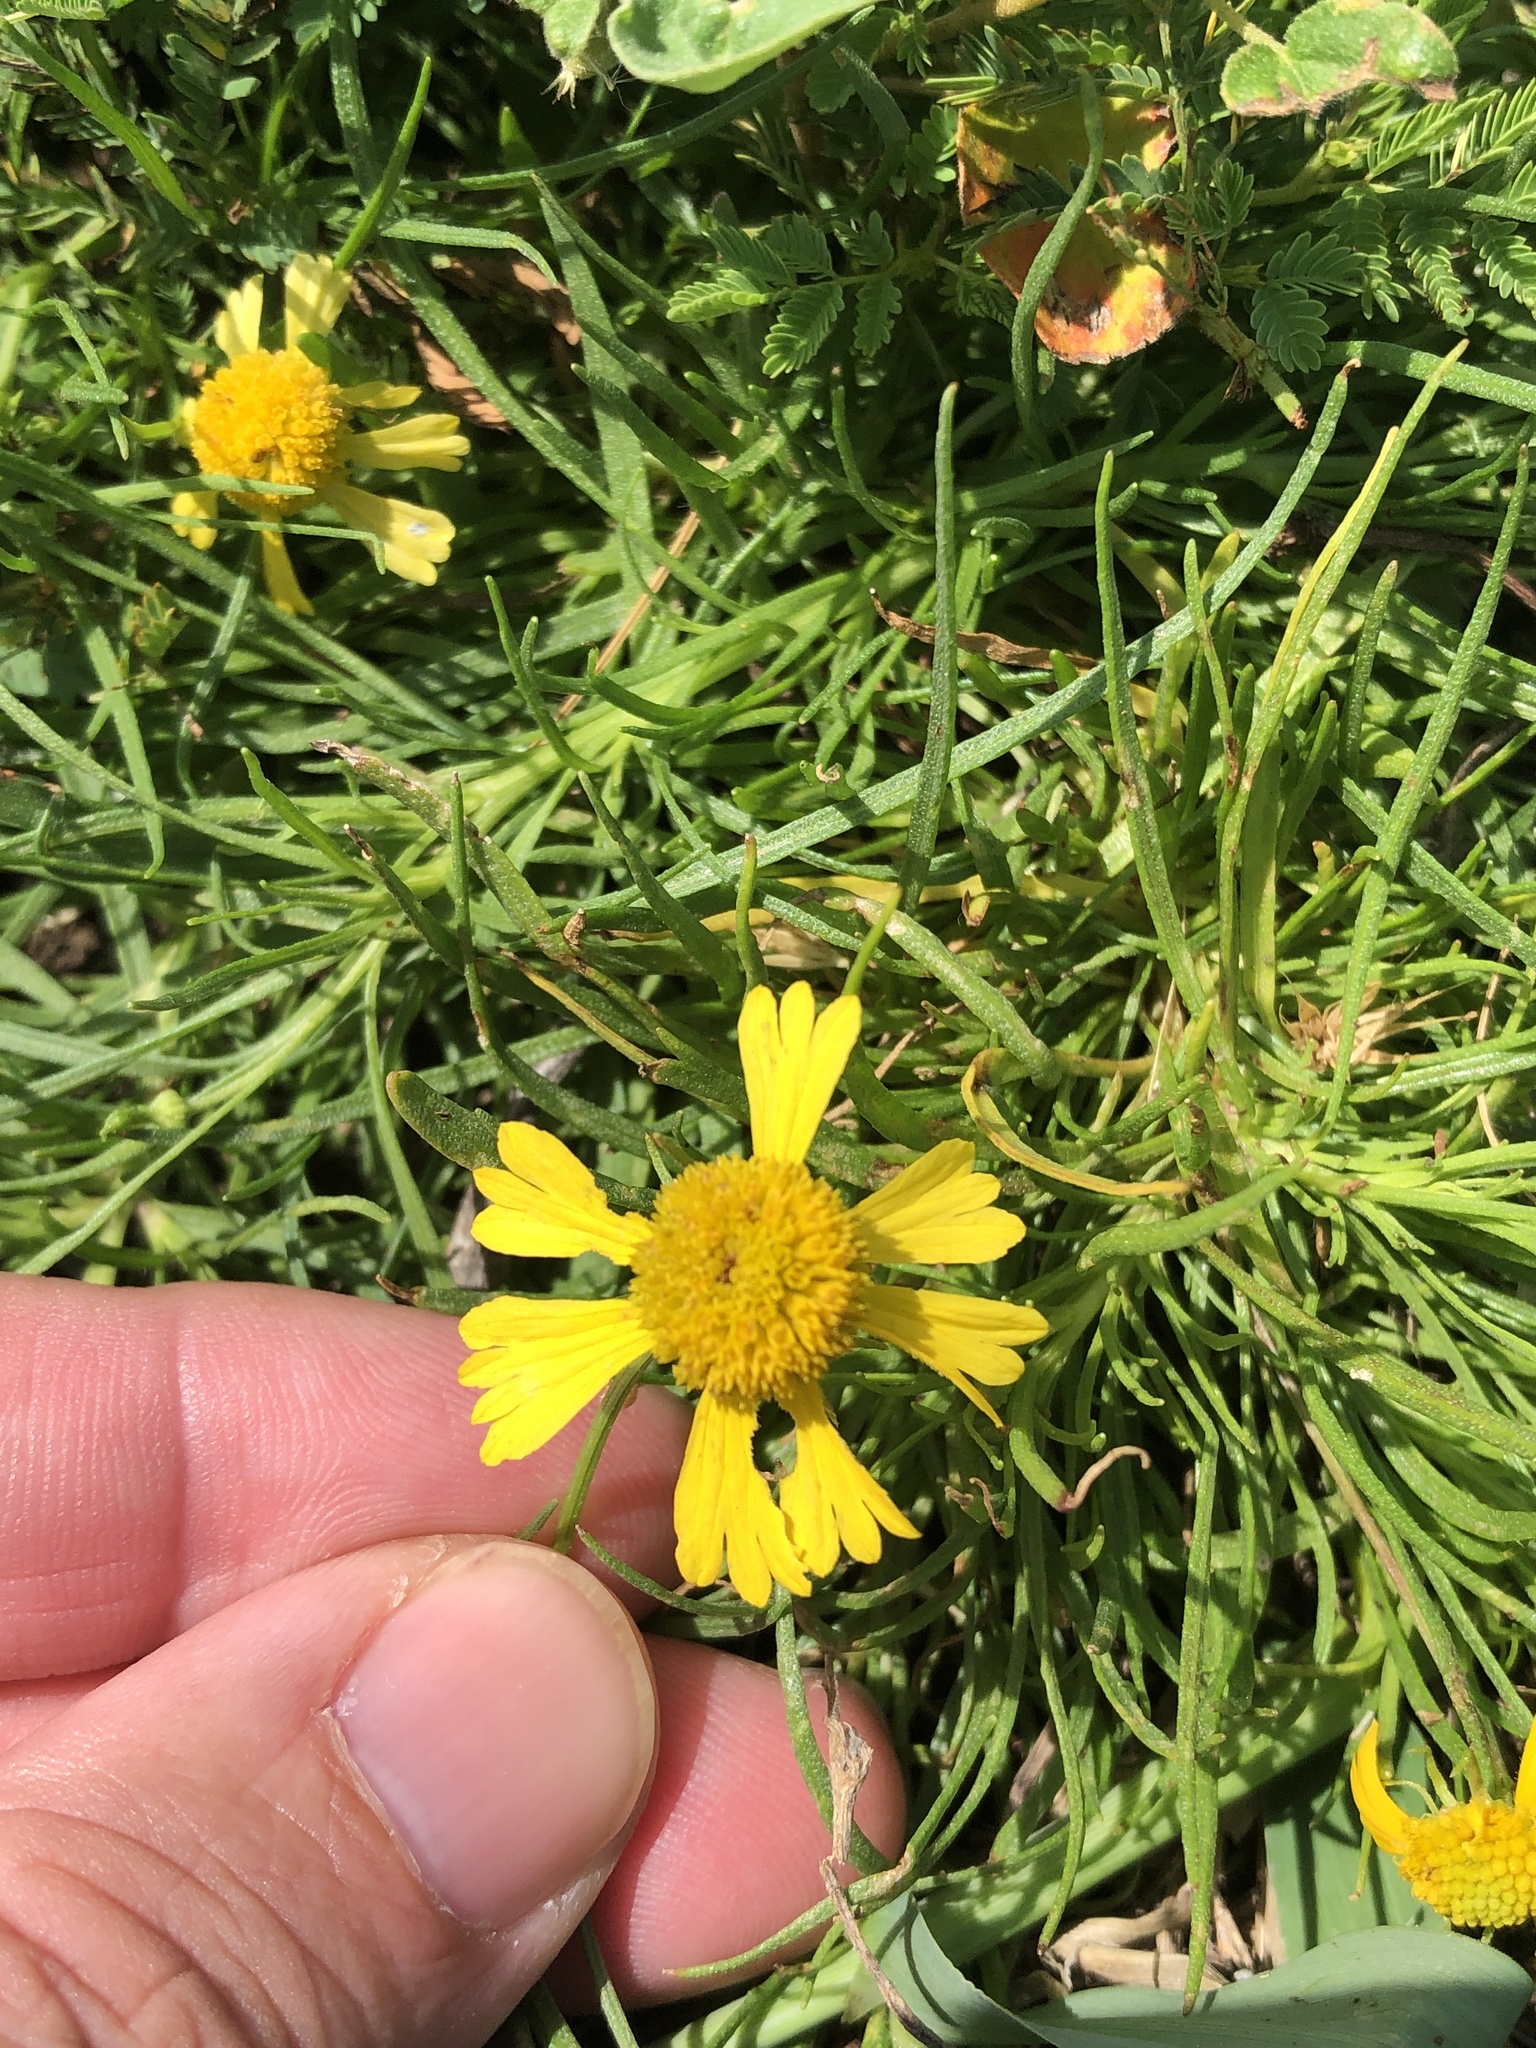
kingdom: Plantae
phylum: Tracheophyta
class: Magnoliopsida
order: Asterales
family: Asteraceae
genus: Helenium
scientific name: Helenium amarum
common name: Bitter sneezeweed
